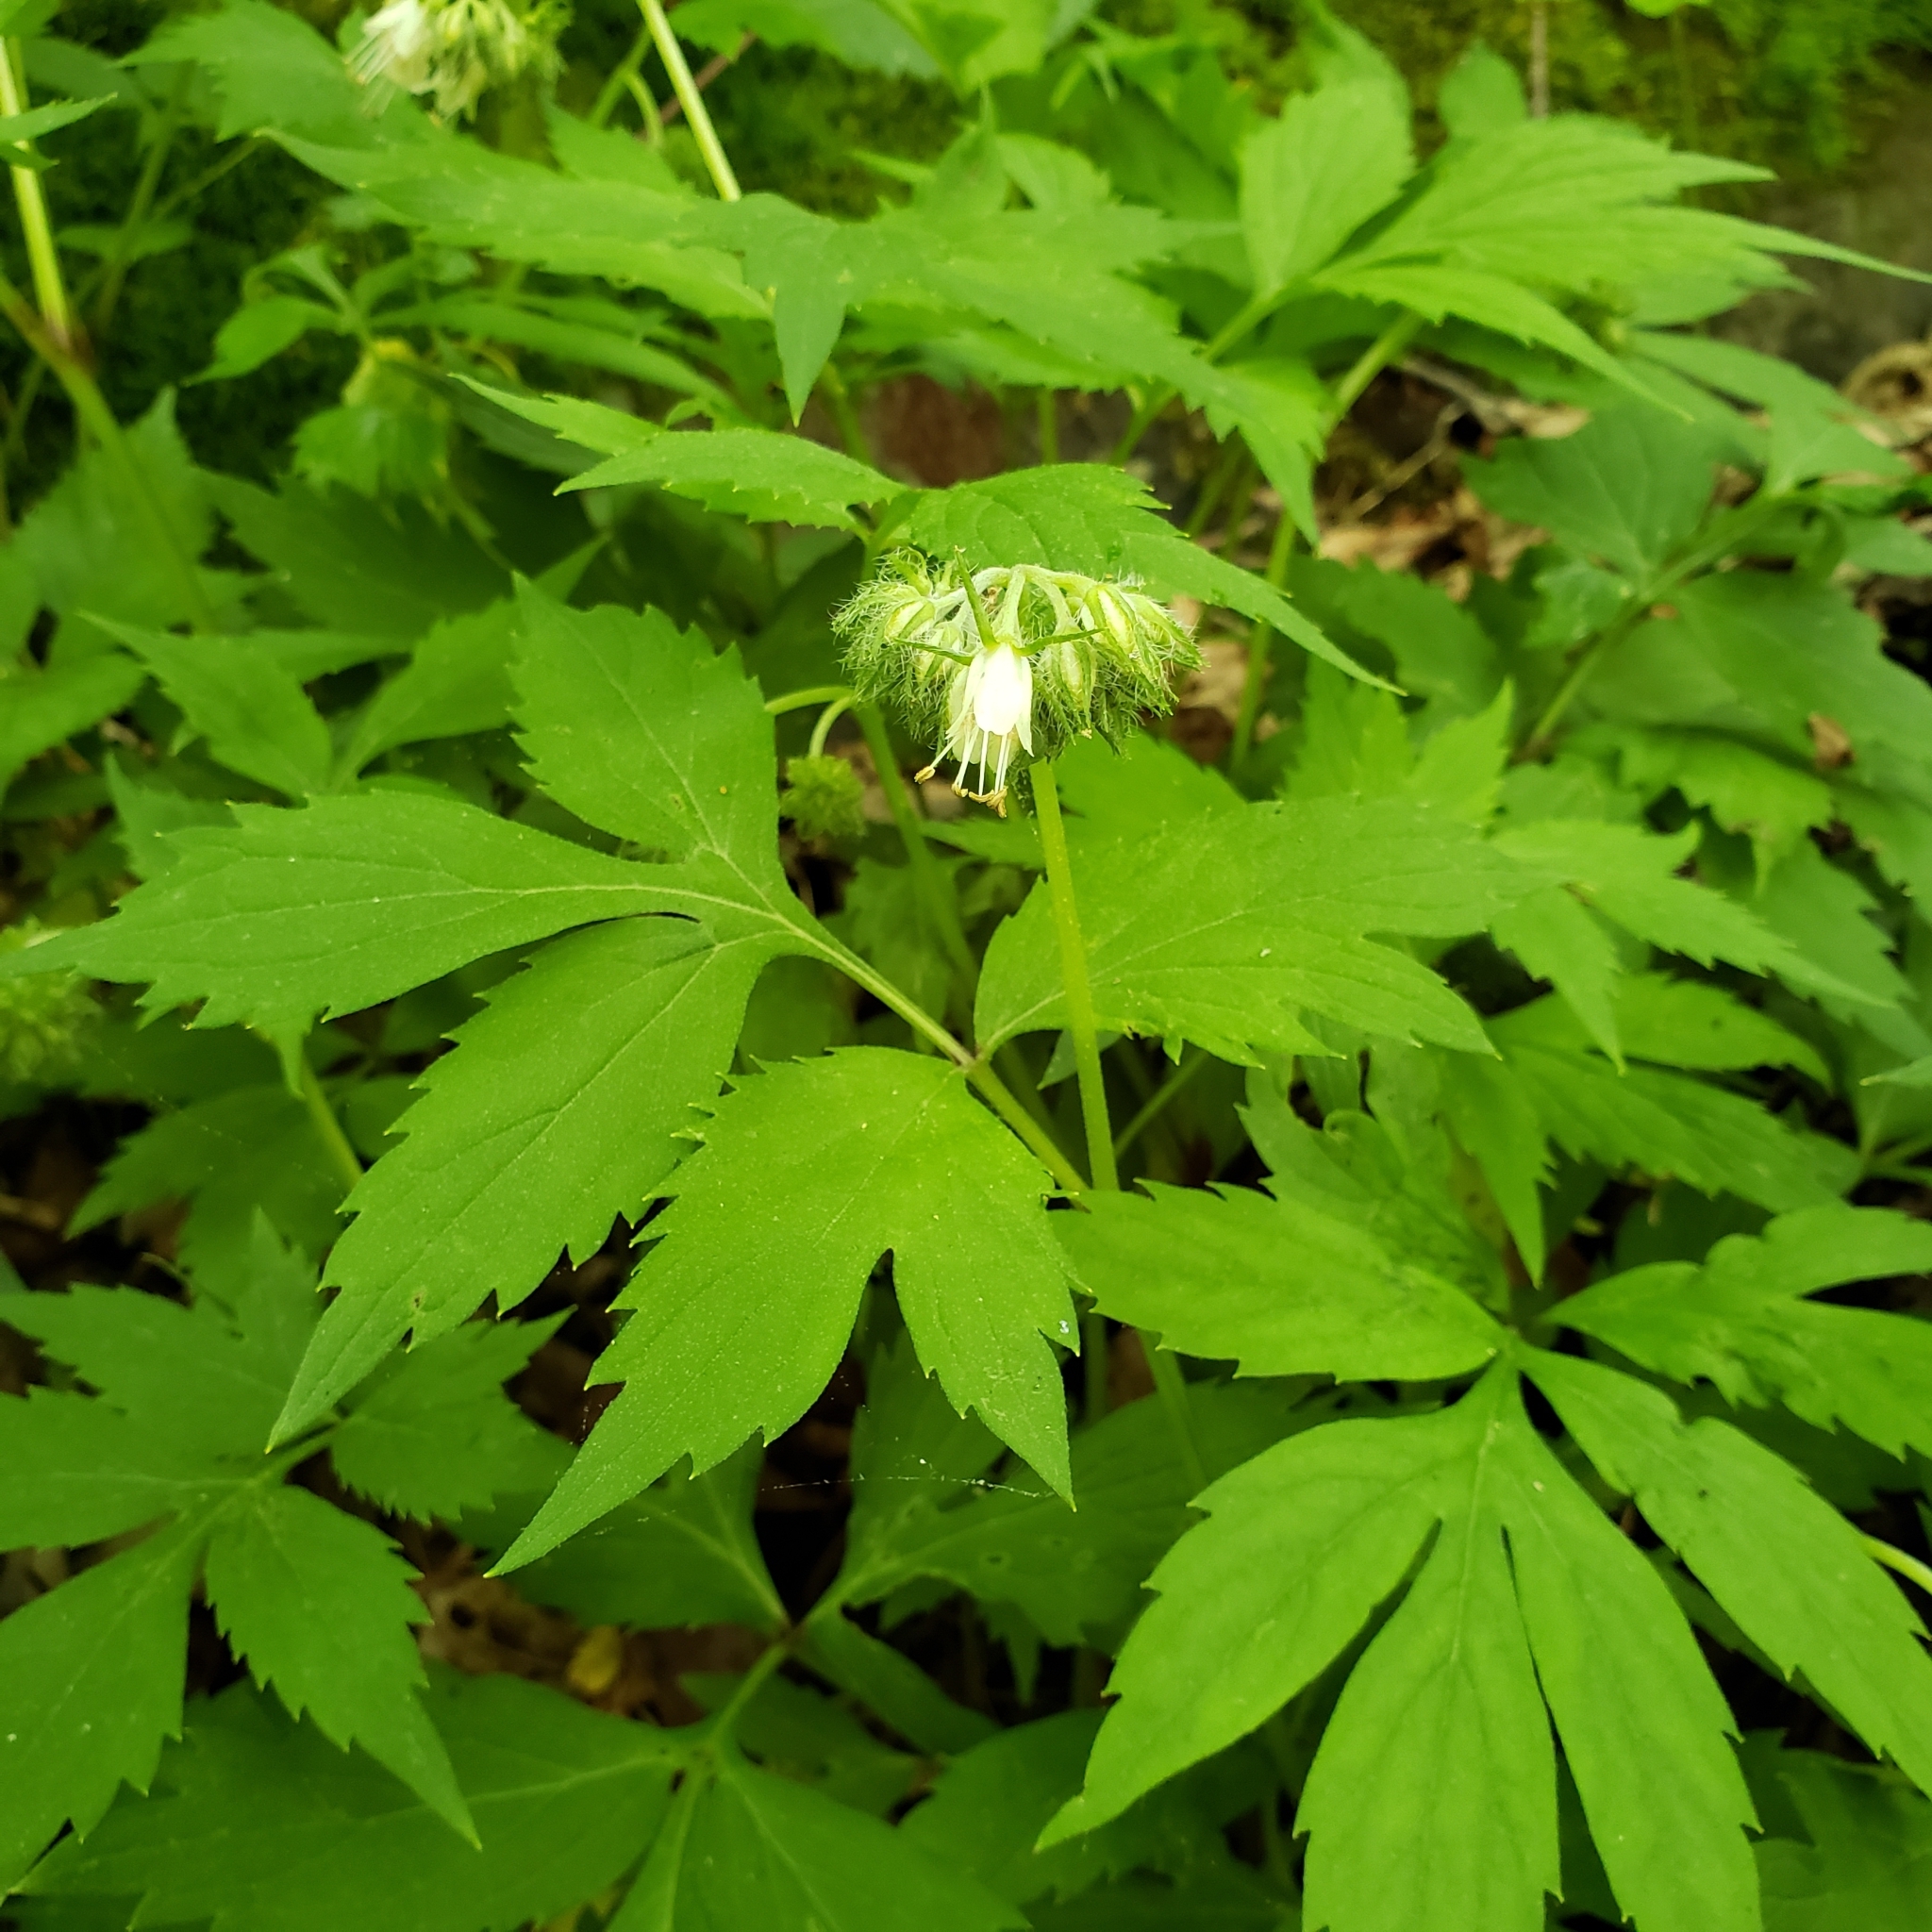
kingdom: Plantae
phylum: Tracheophyta
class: Magnoliopsida
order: Boraginales
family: Hydrophyllaceae
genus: Hydrophyllum
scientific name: Hydrophyllum virginianum
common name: Virginia waterleaf
